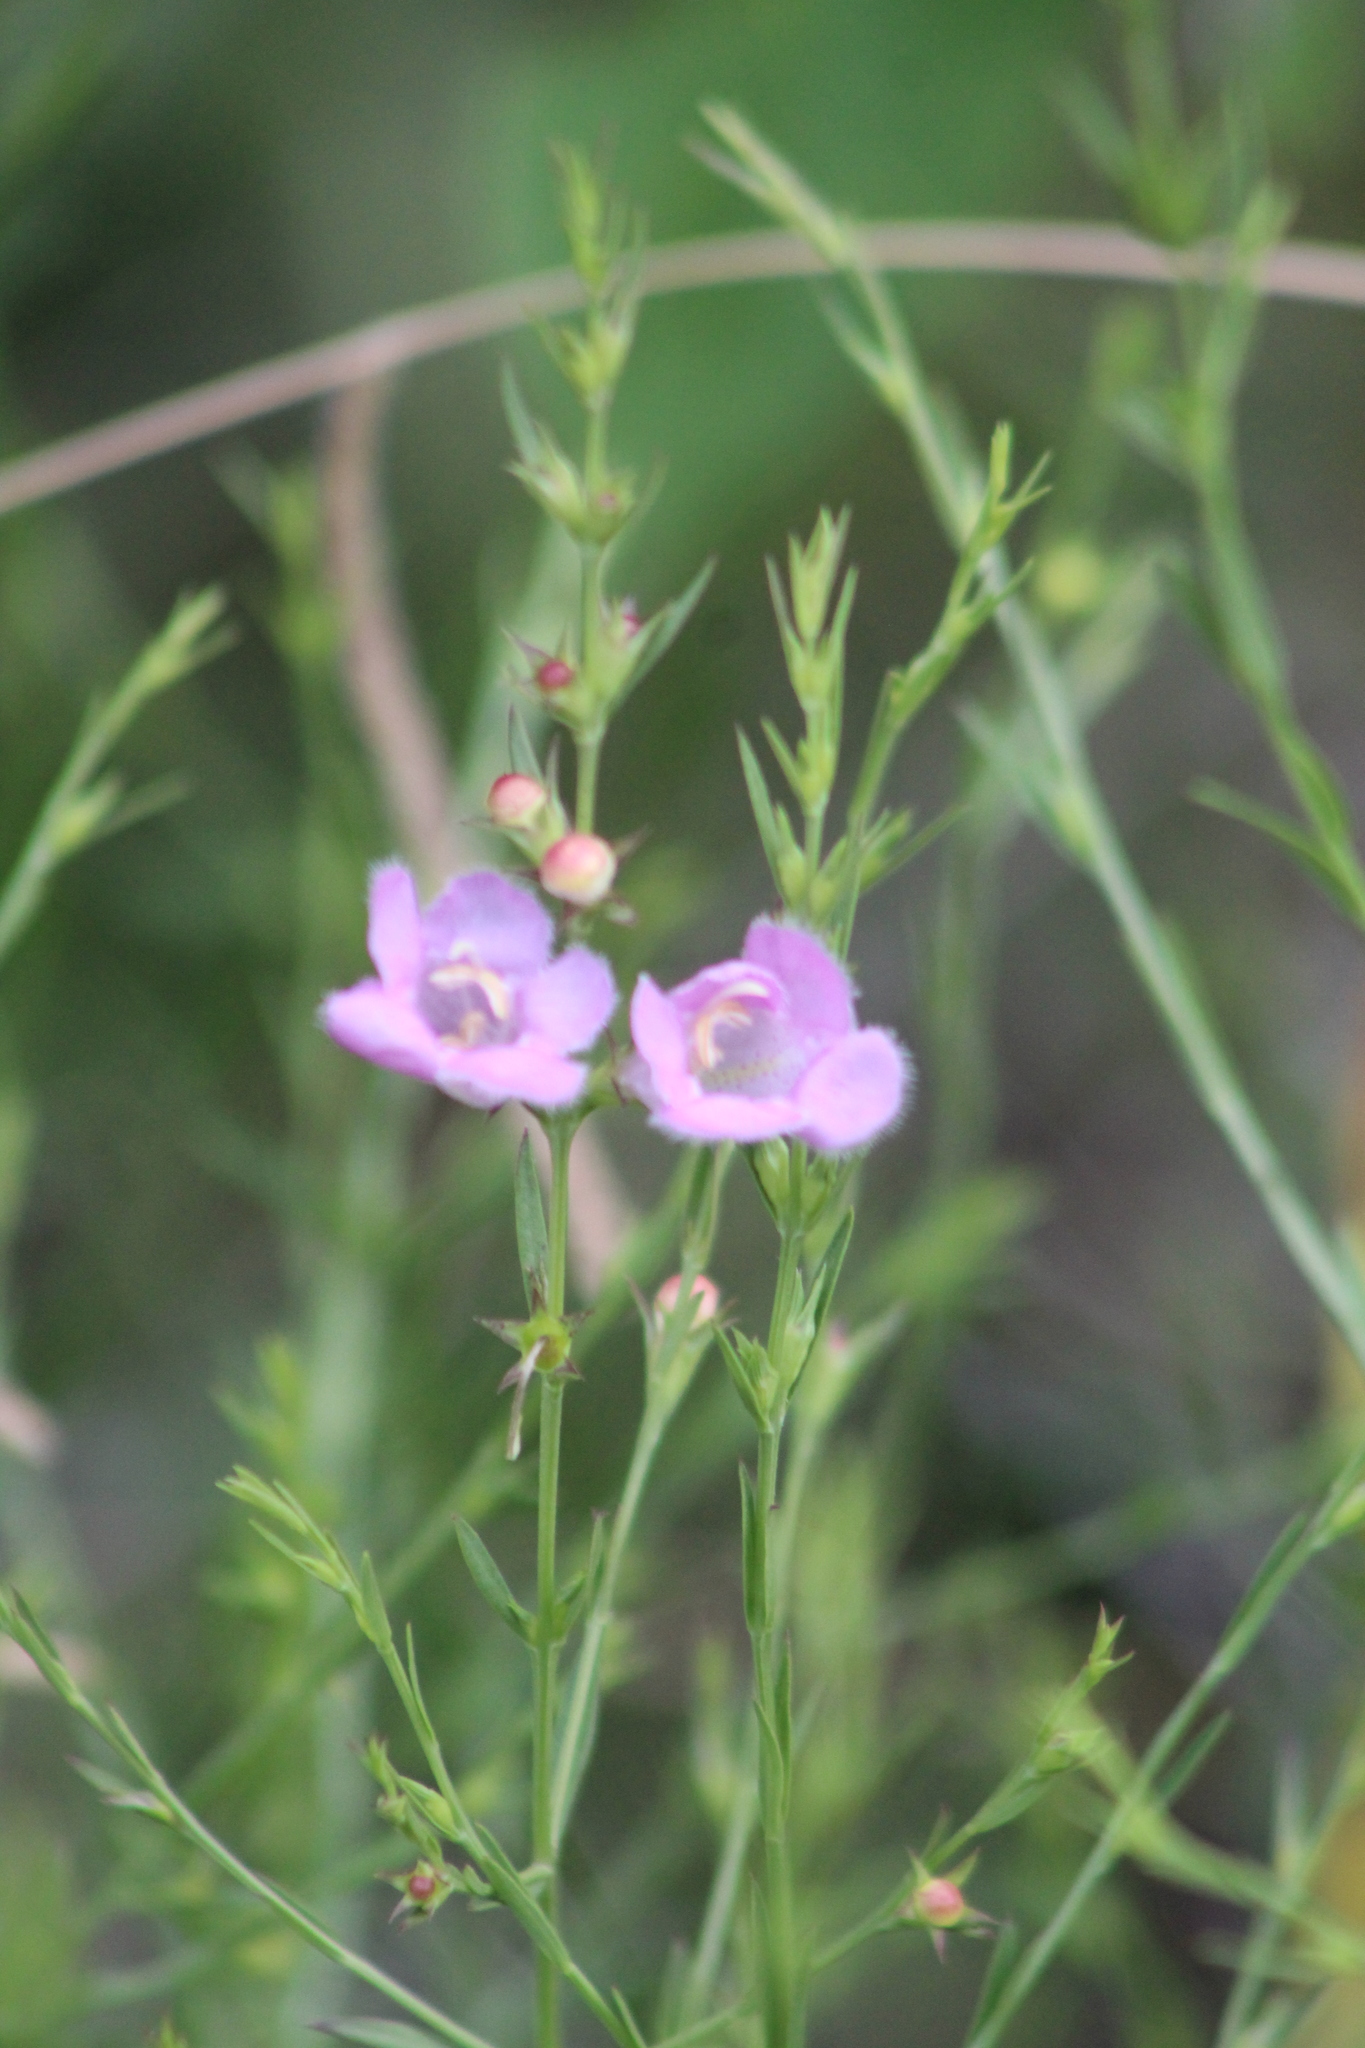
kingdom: Plantae
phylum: Tracheophyta
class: Magnoliopsida
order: Lamiales
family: Orobanchaceae
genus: Agalinis
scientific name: Agalinis heterophylla
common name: Prairie agalinis
